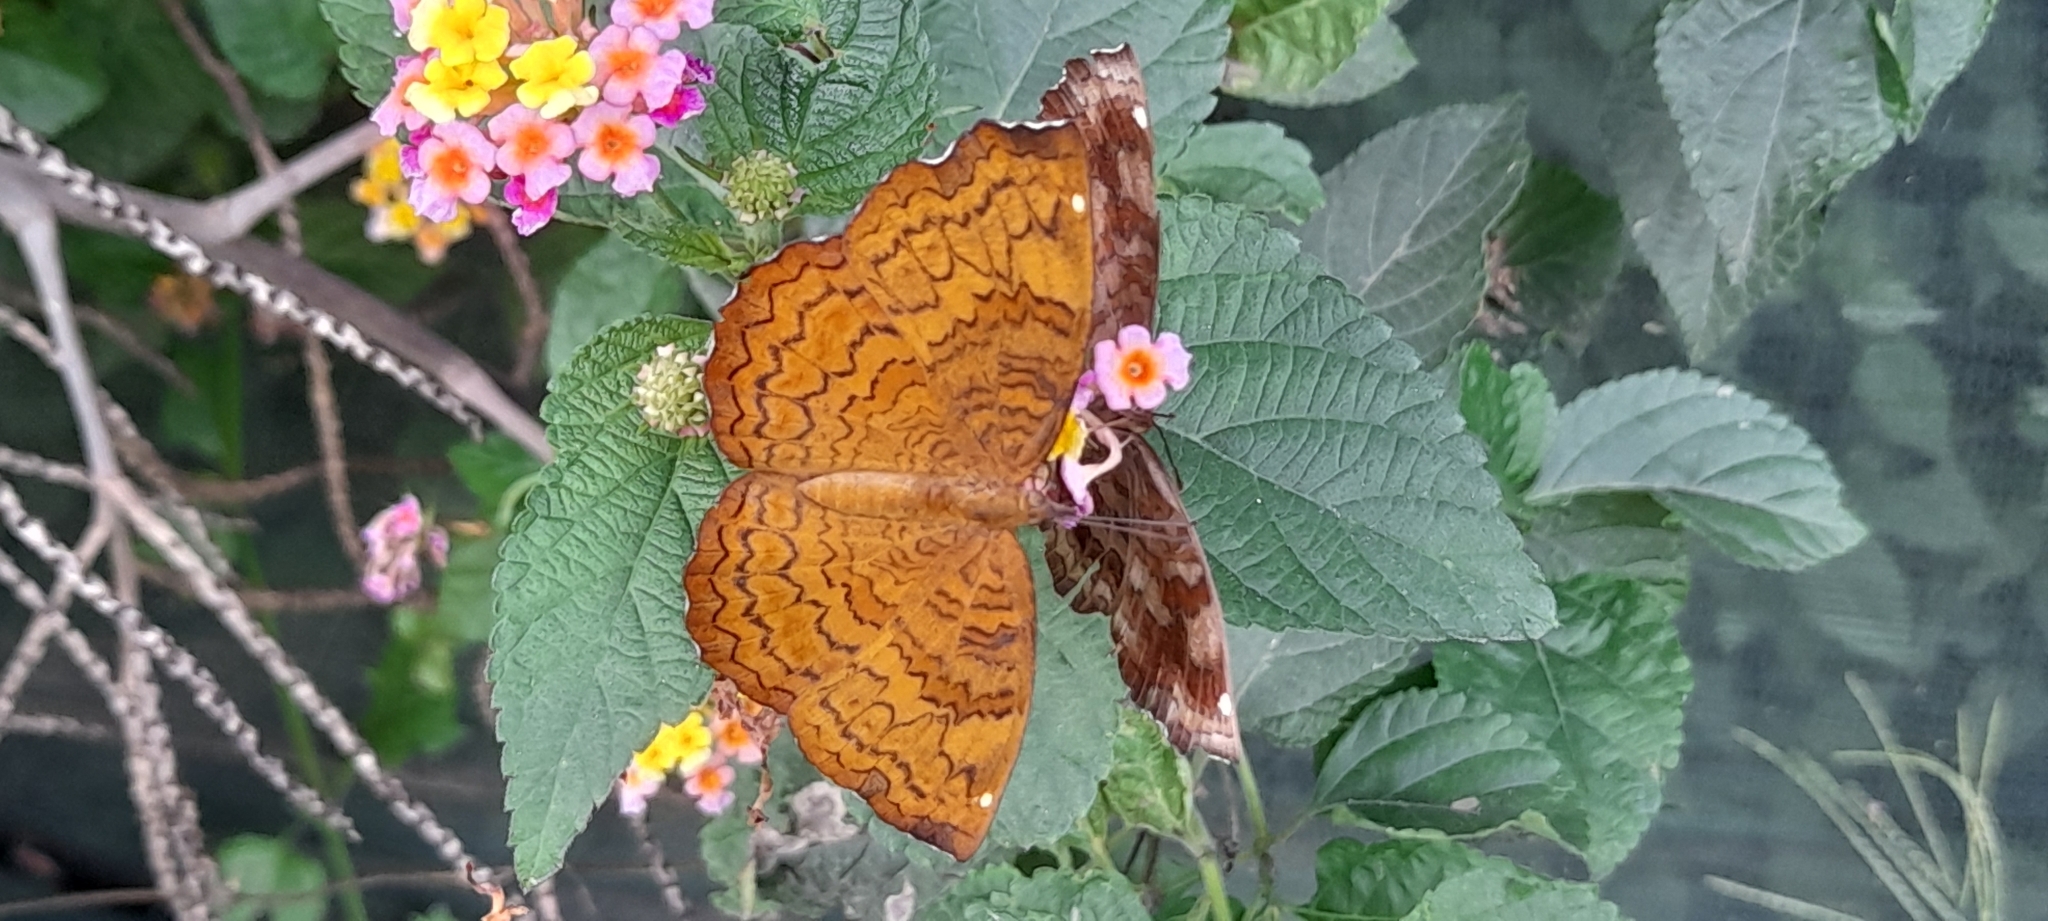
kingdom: Animalia
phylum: Arthropoda
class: Insecta
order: Lepidoptera
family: Nymphalidae
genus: Ariadne
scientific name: Ariadne merione
